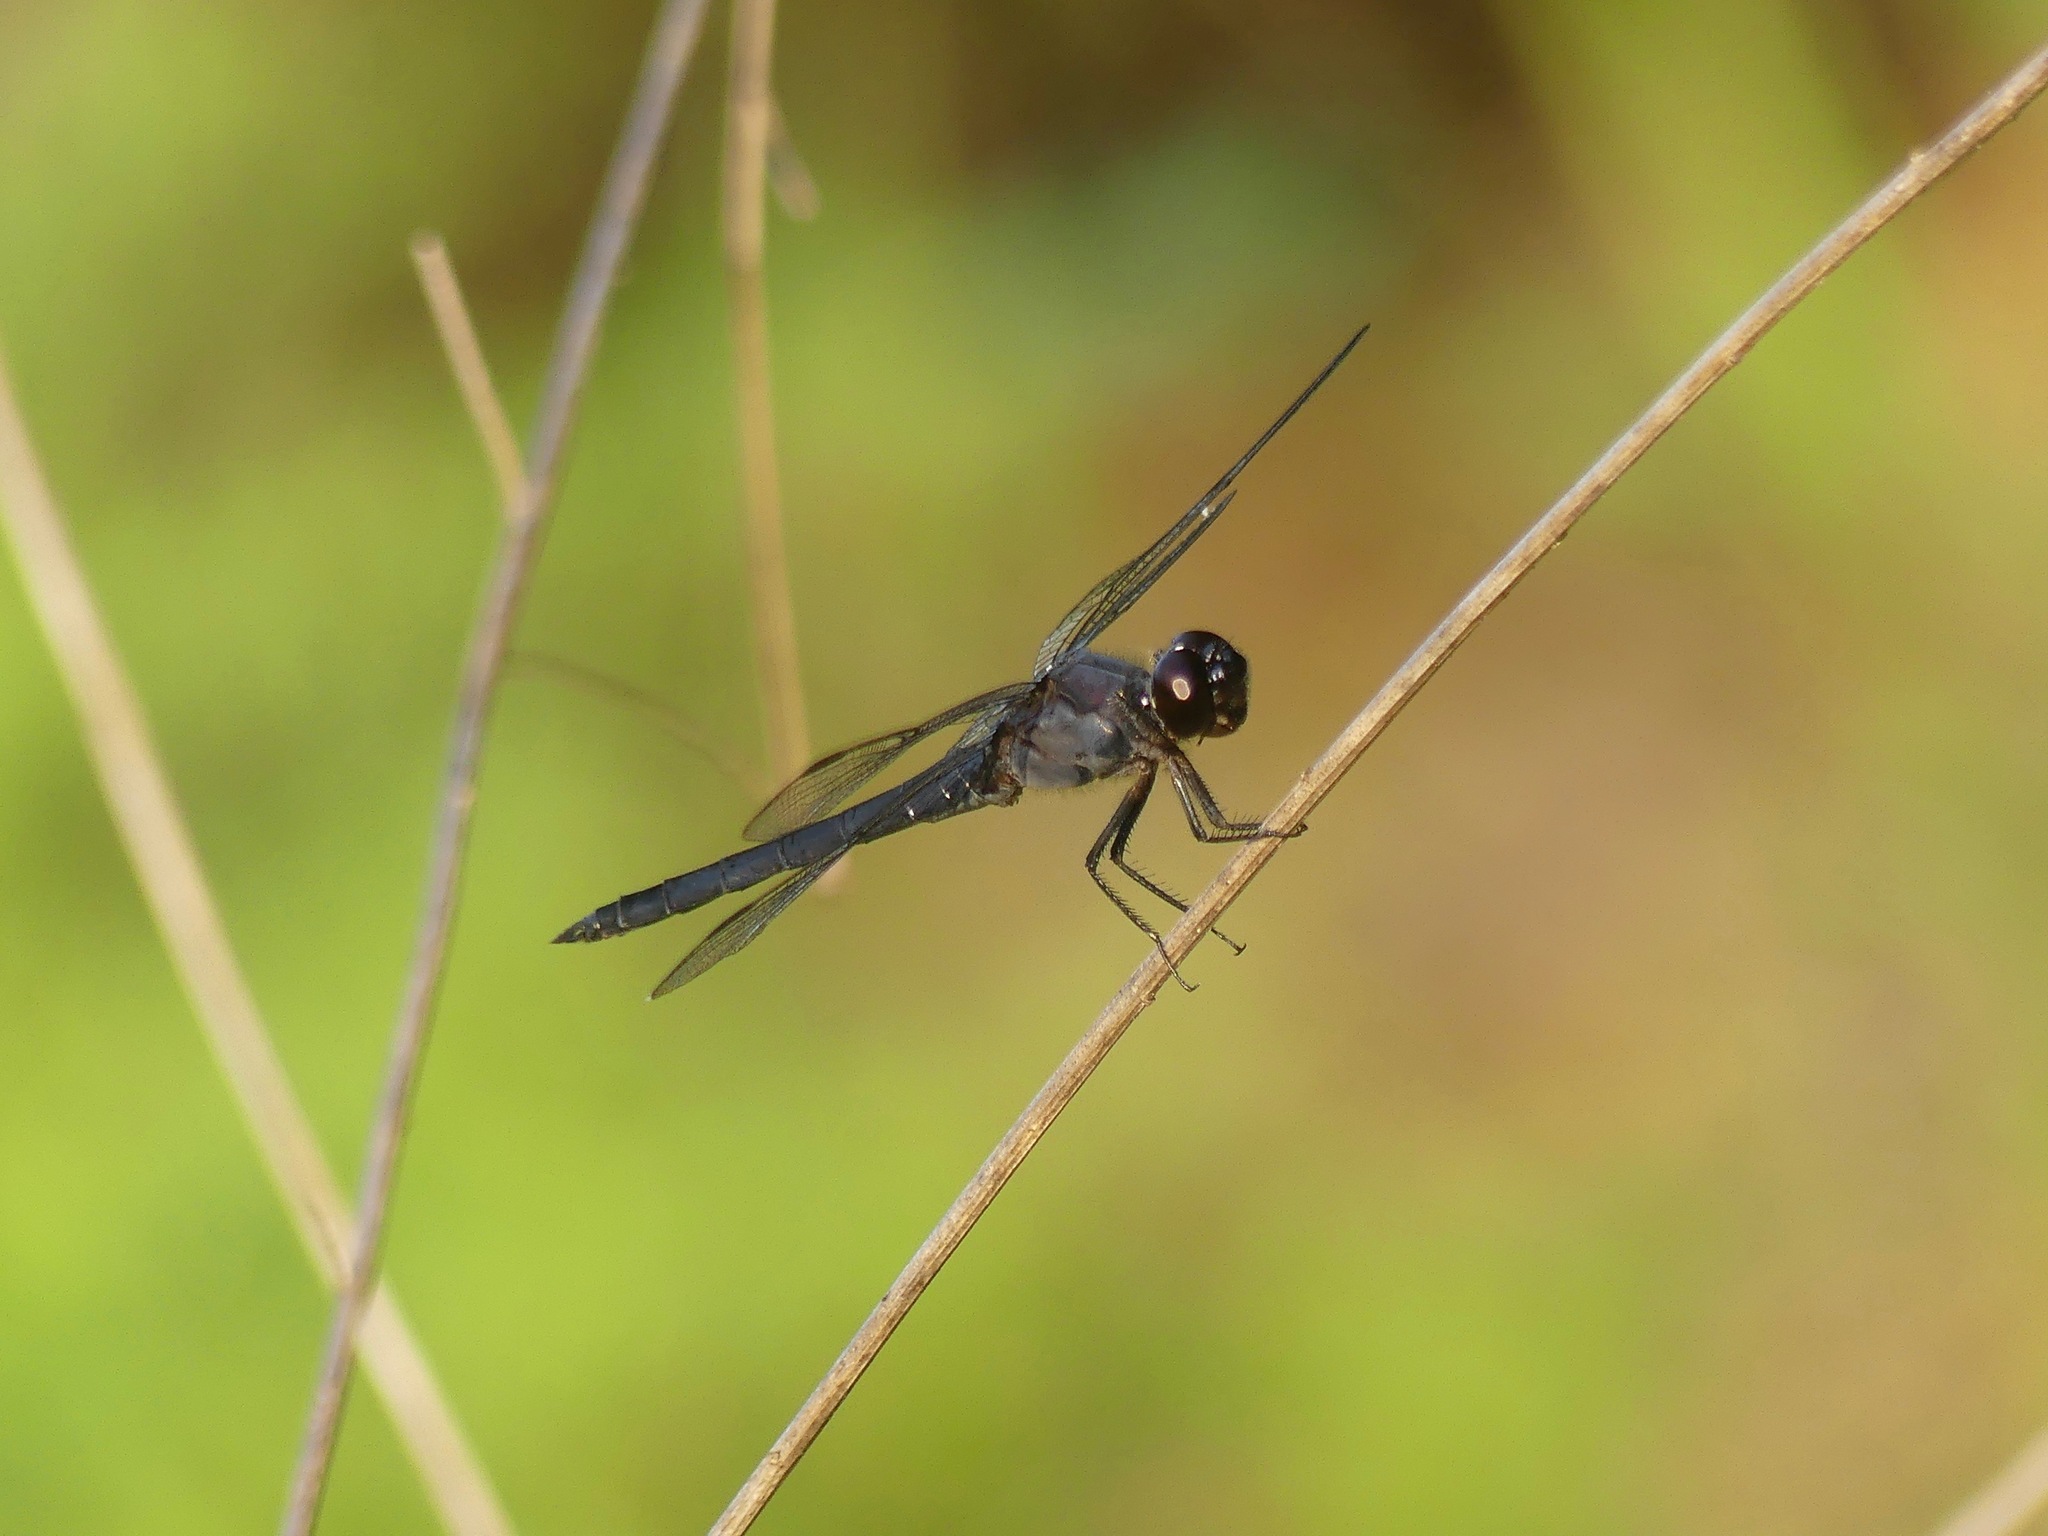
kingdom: Animalia
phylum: Arthropoda
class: Insecta
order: Odonata
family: Libellulidae
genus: Libellula
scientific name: Libellula incesta
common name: Slaty skimmer
